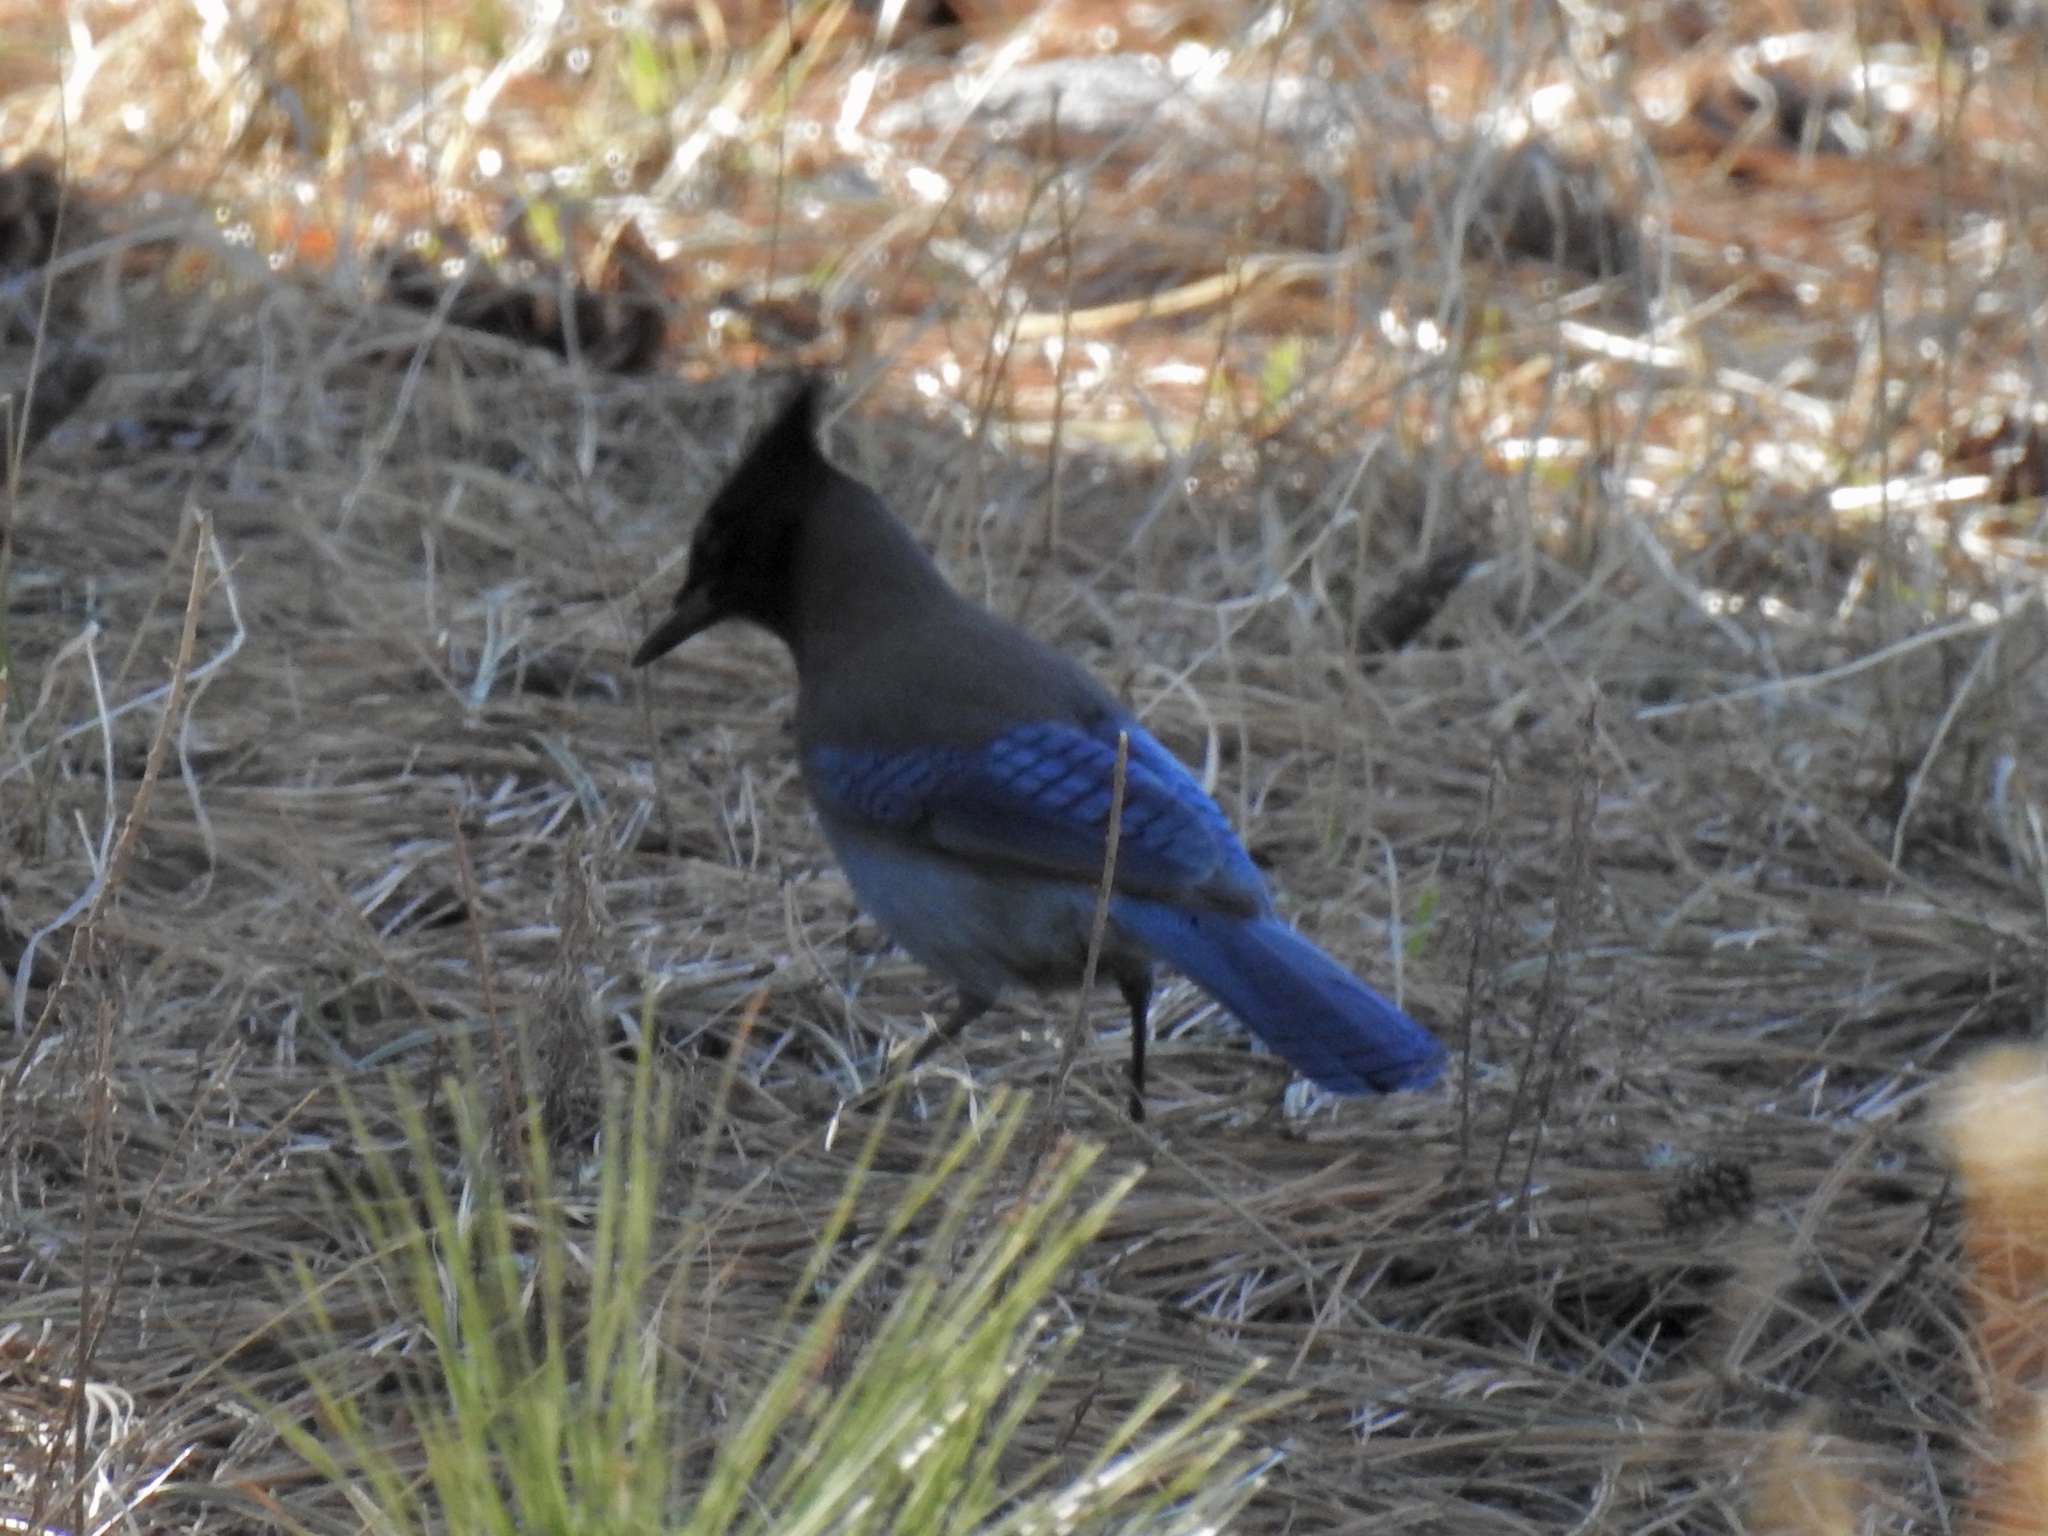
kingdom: Animalia
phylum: Chordata
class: Aves
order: Passeriformes
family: Corvidae
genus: Cyanocitta
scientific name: Cyanocitta stelleri
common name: Steller's jay
